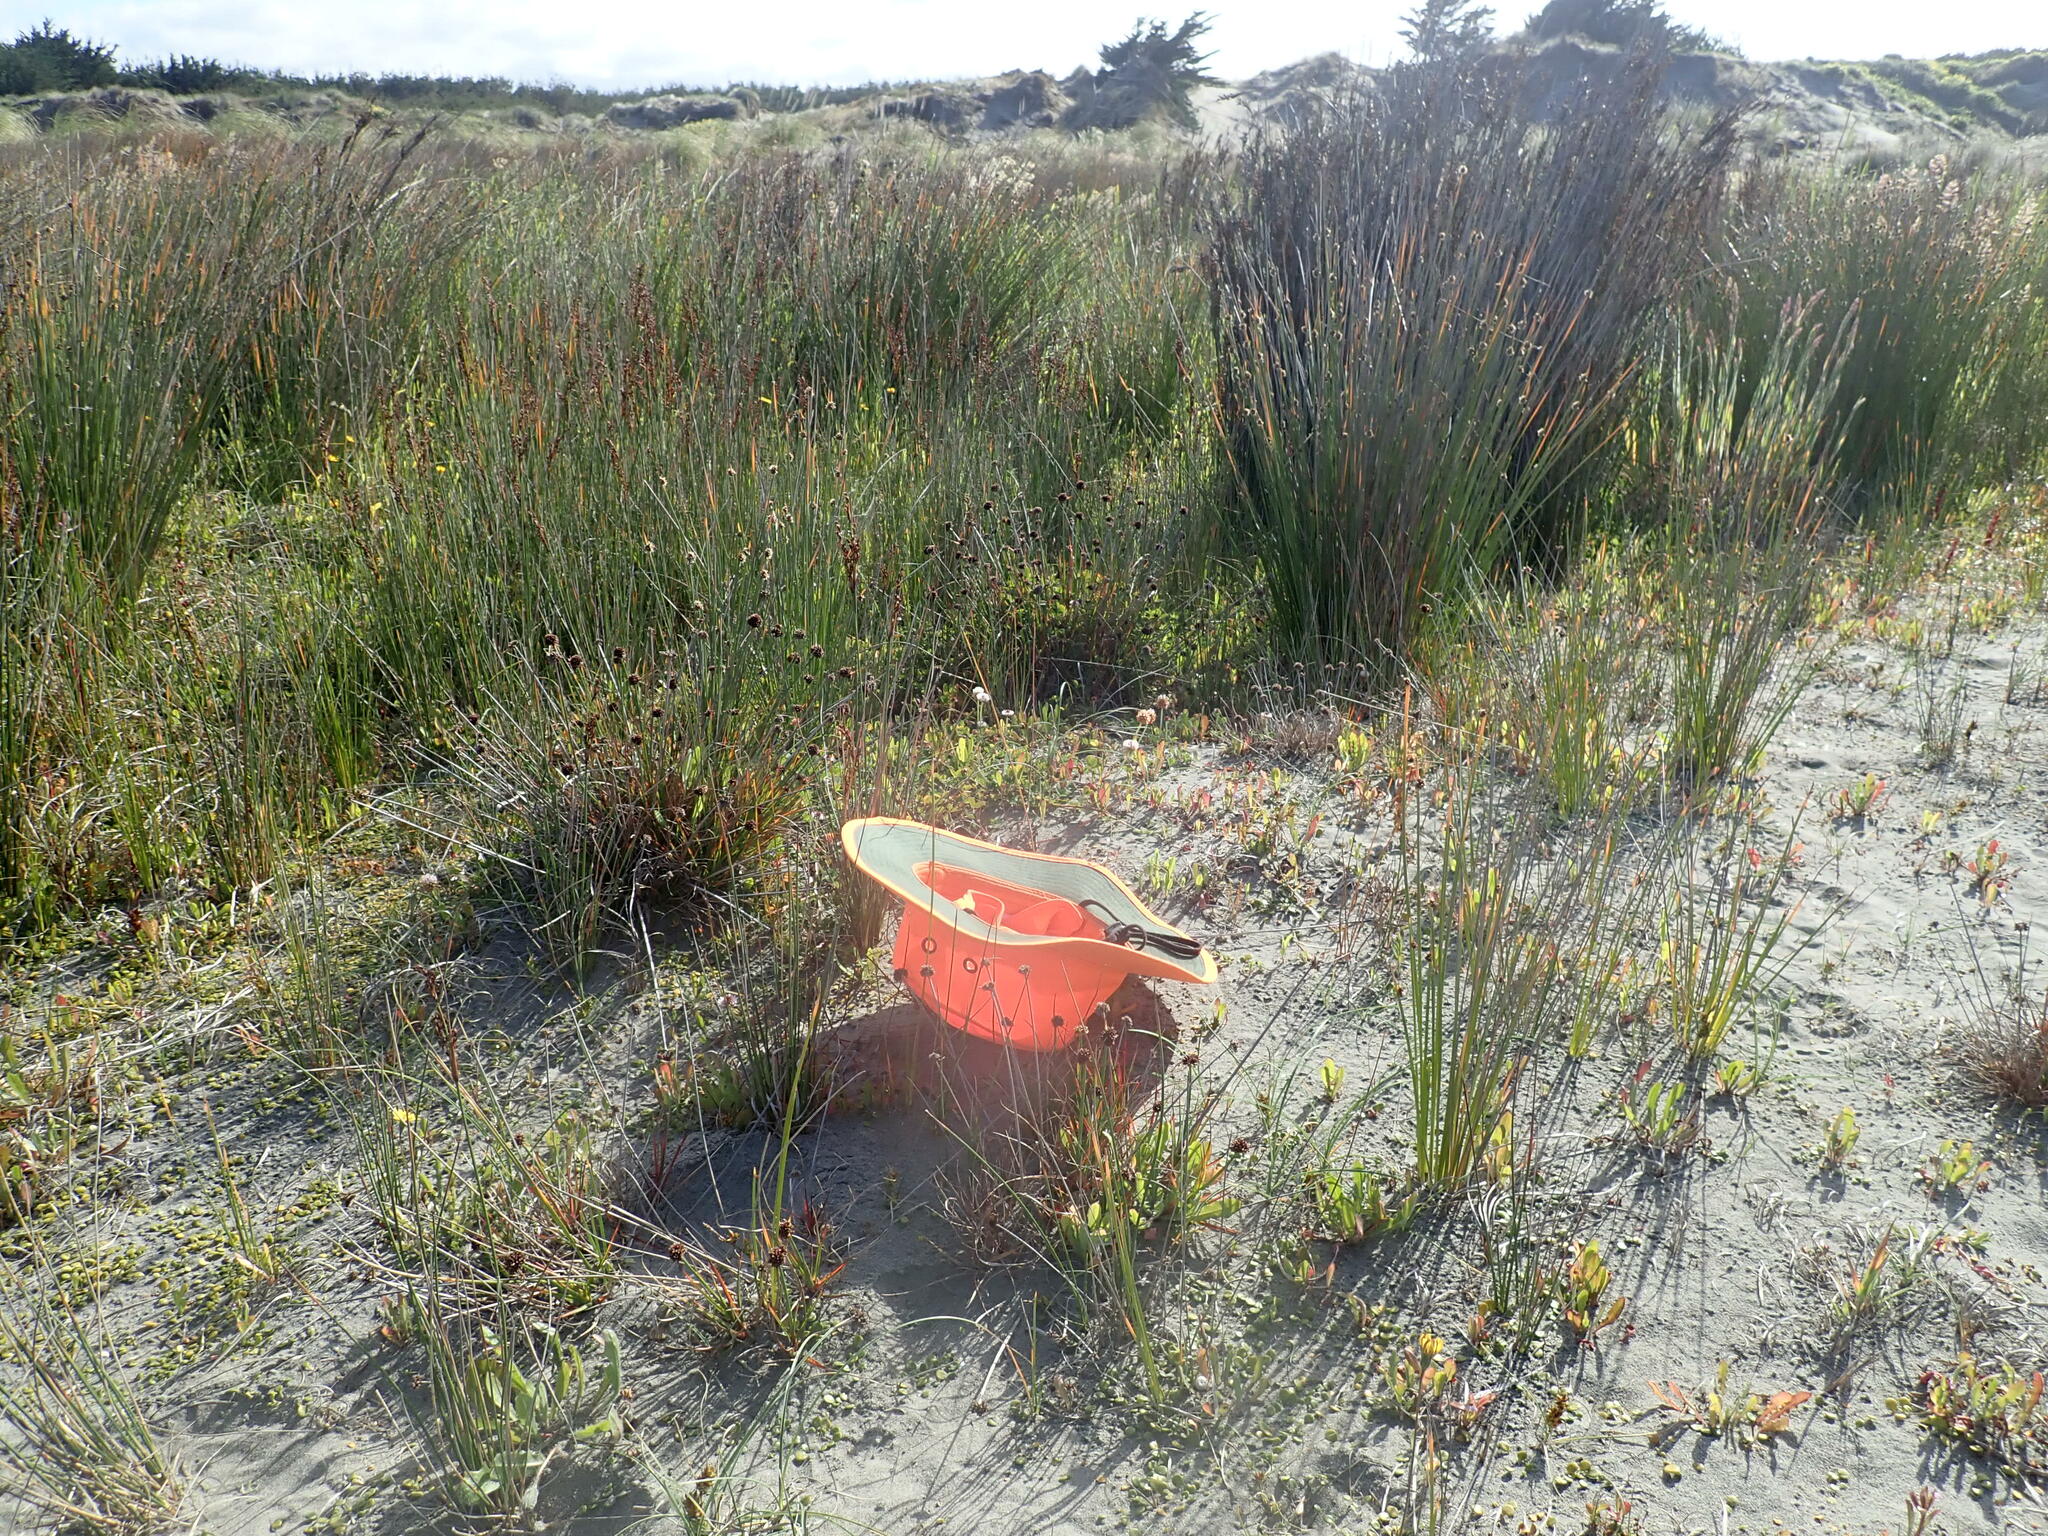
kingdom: Plantae
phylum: Tracheophyta
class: Liliopsida
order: Poales
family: Juncaceae
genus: Juncus
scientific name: Juncus caespiticius
